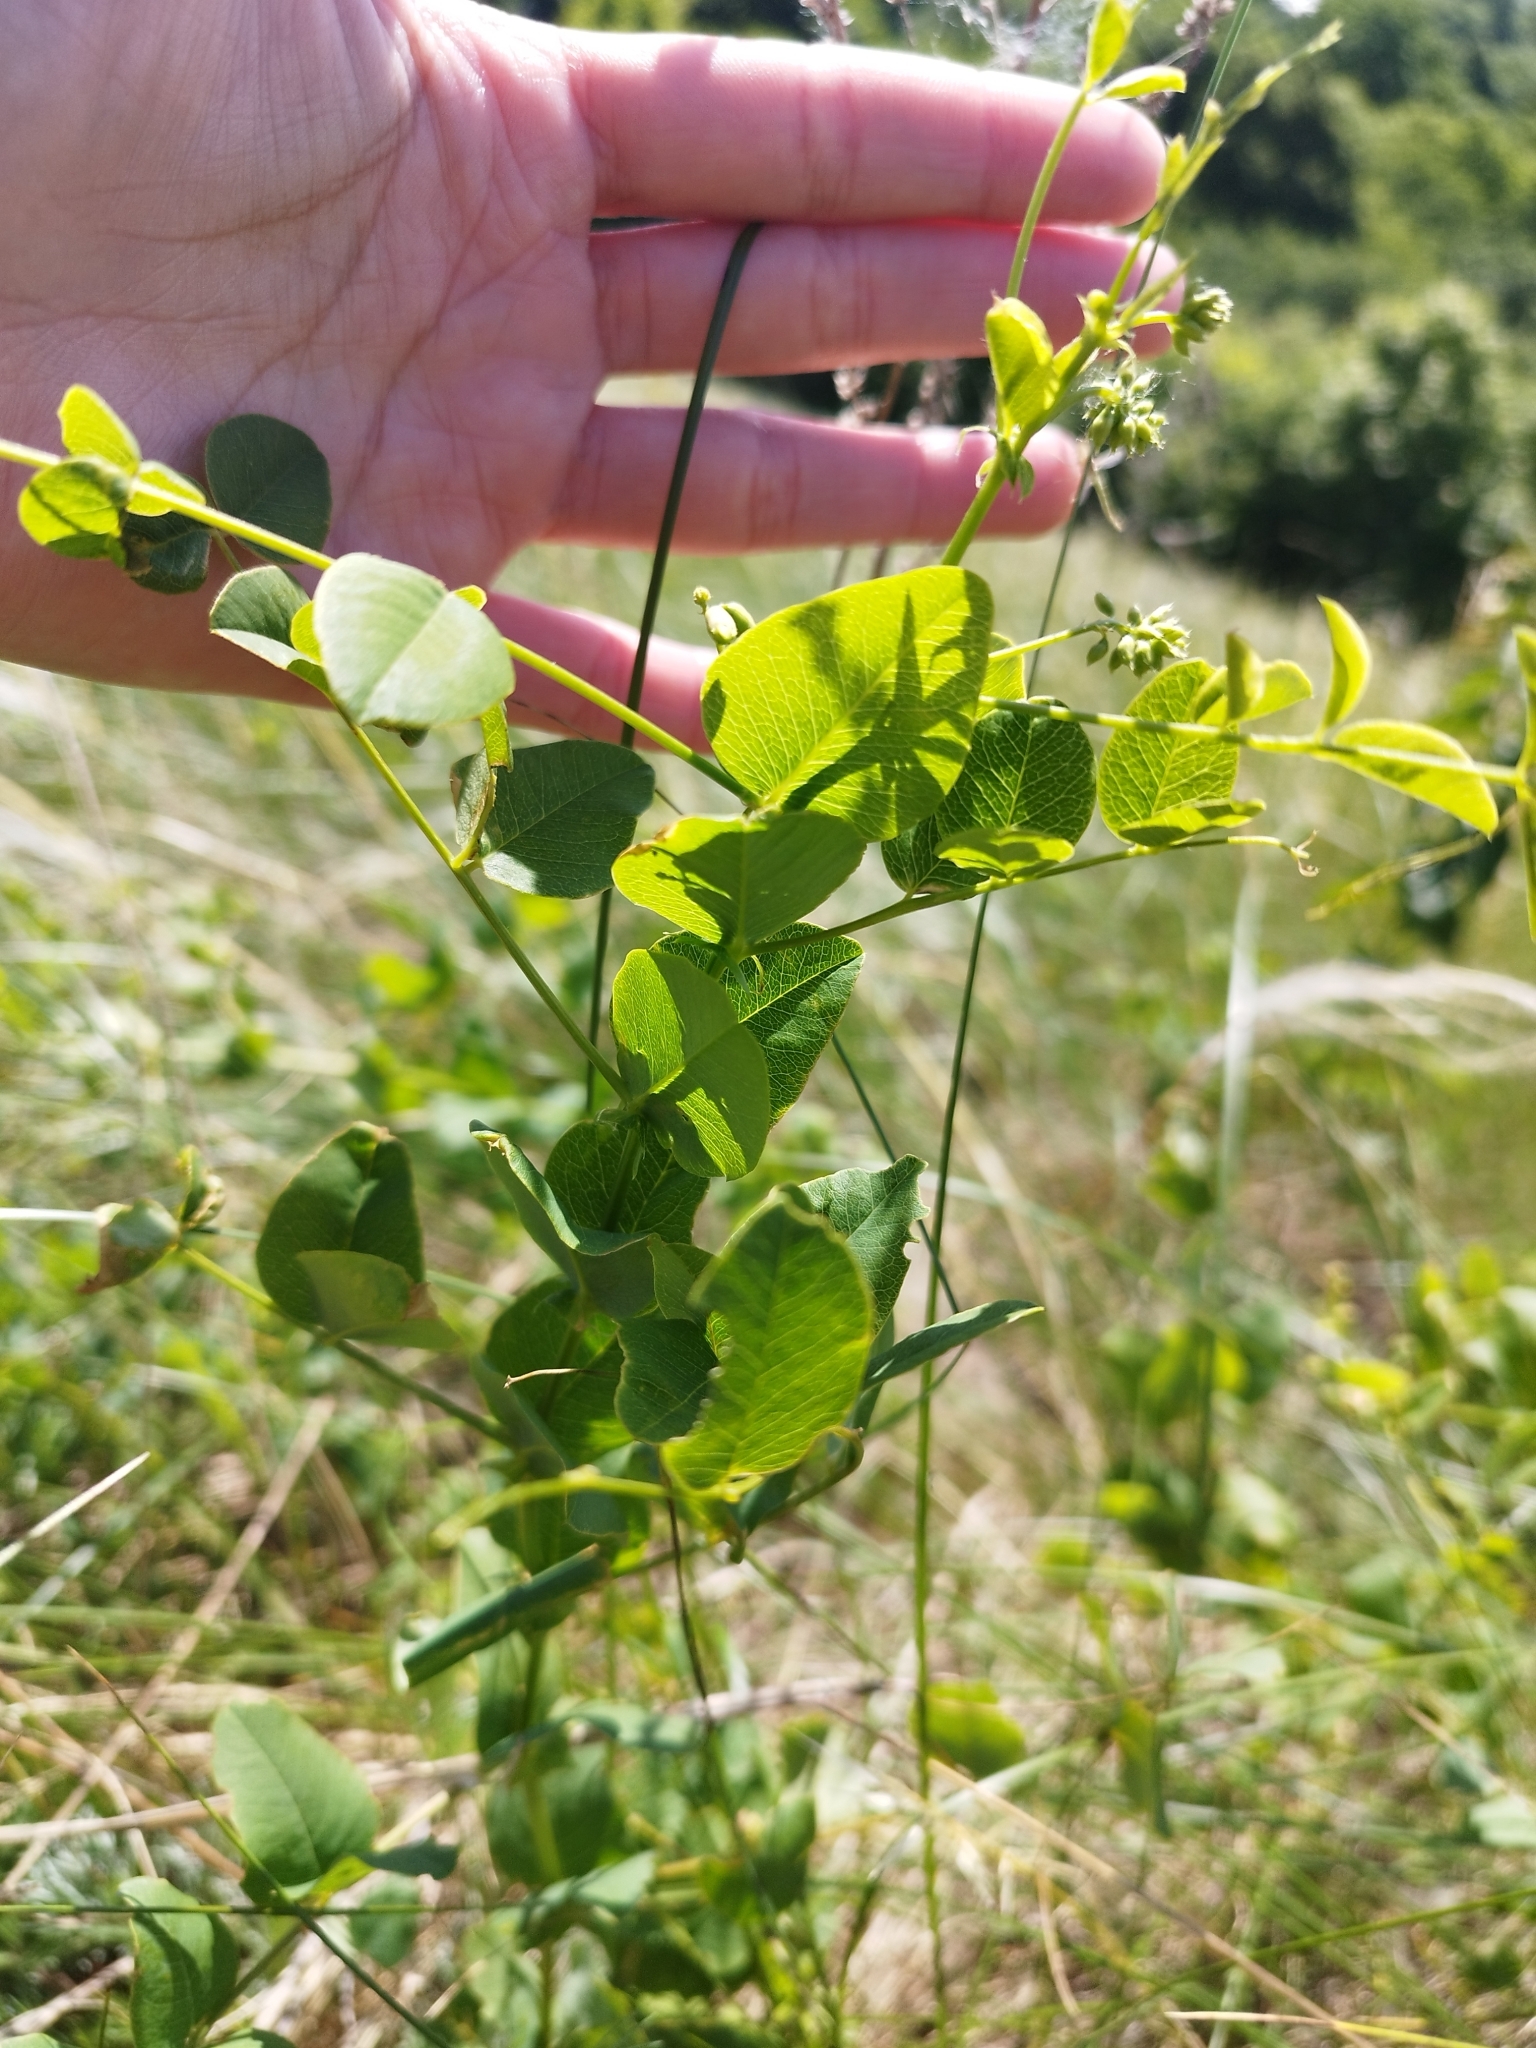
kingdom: Plantae
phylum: Tracheophyta
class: Magnoliopsida
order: Fabales
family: Fabaceae
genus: Vicia
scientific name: Vicia pisiformis
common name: Pale-flower vetch
